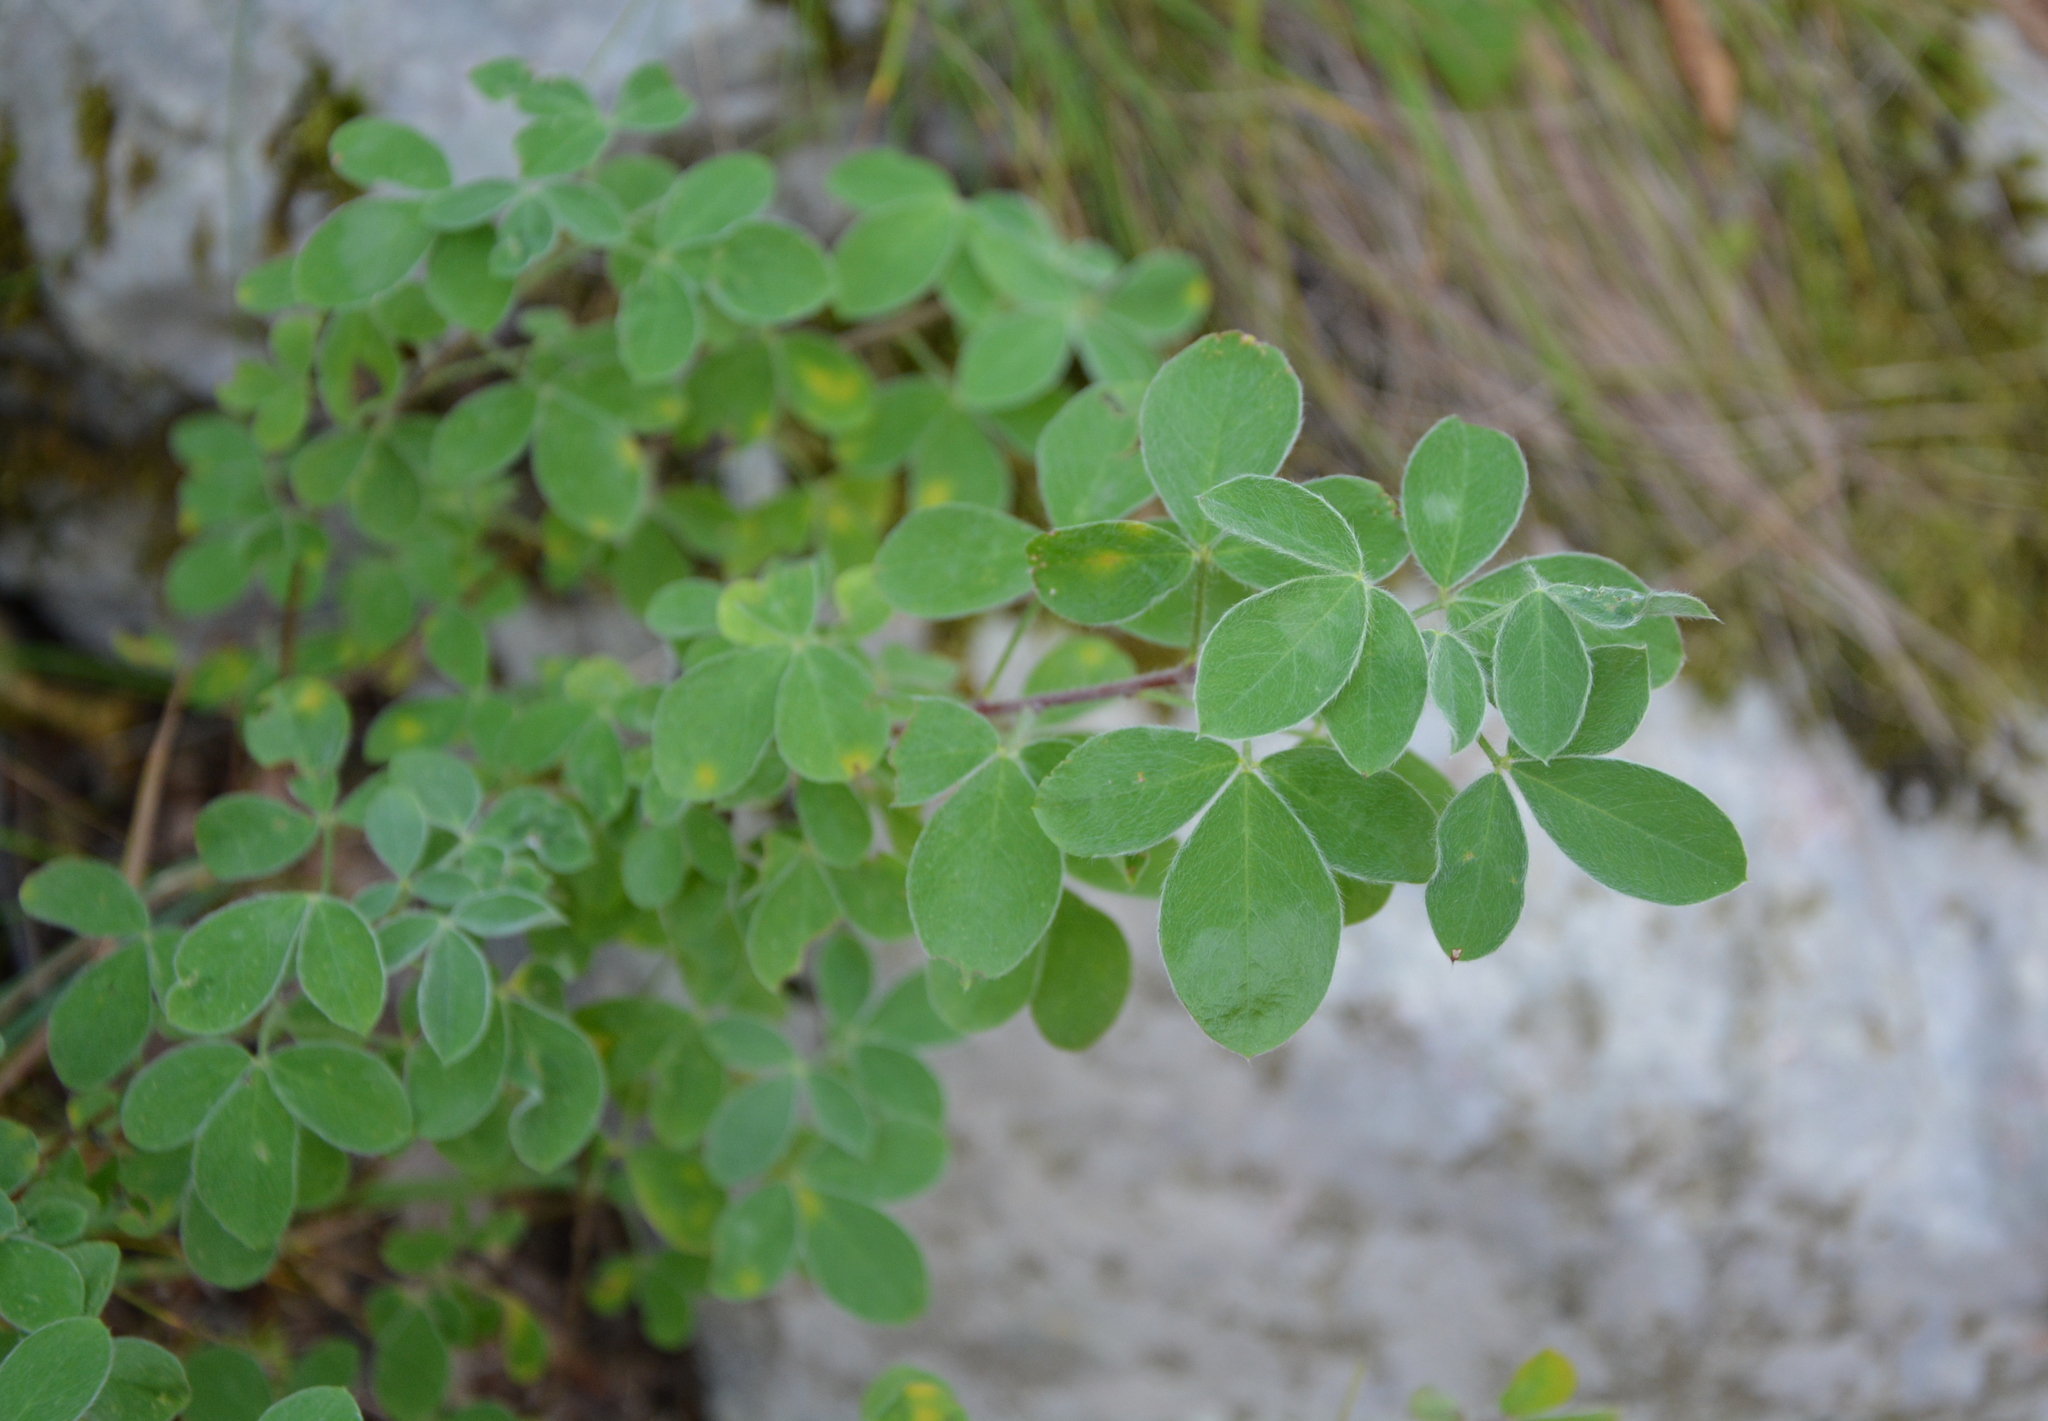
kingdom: Plantae
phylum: Tracheophyta
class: Magnoliopsida
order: Fabales
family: Fabaceae
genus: Chamaecytisus
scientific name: Chamaecytisus hirsutus
